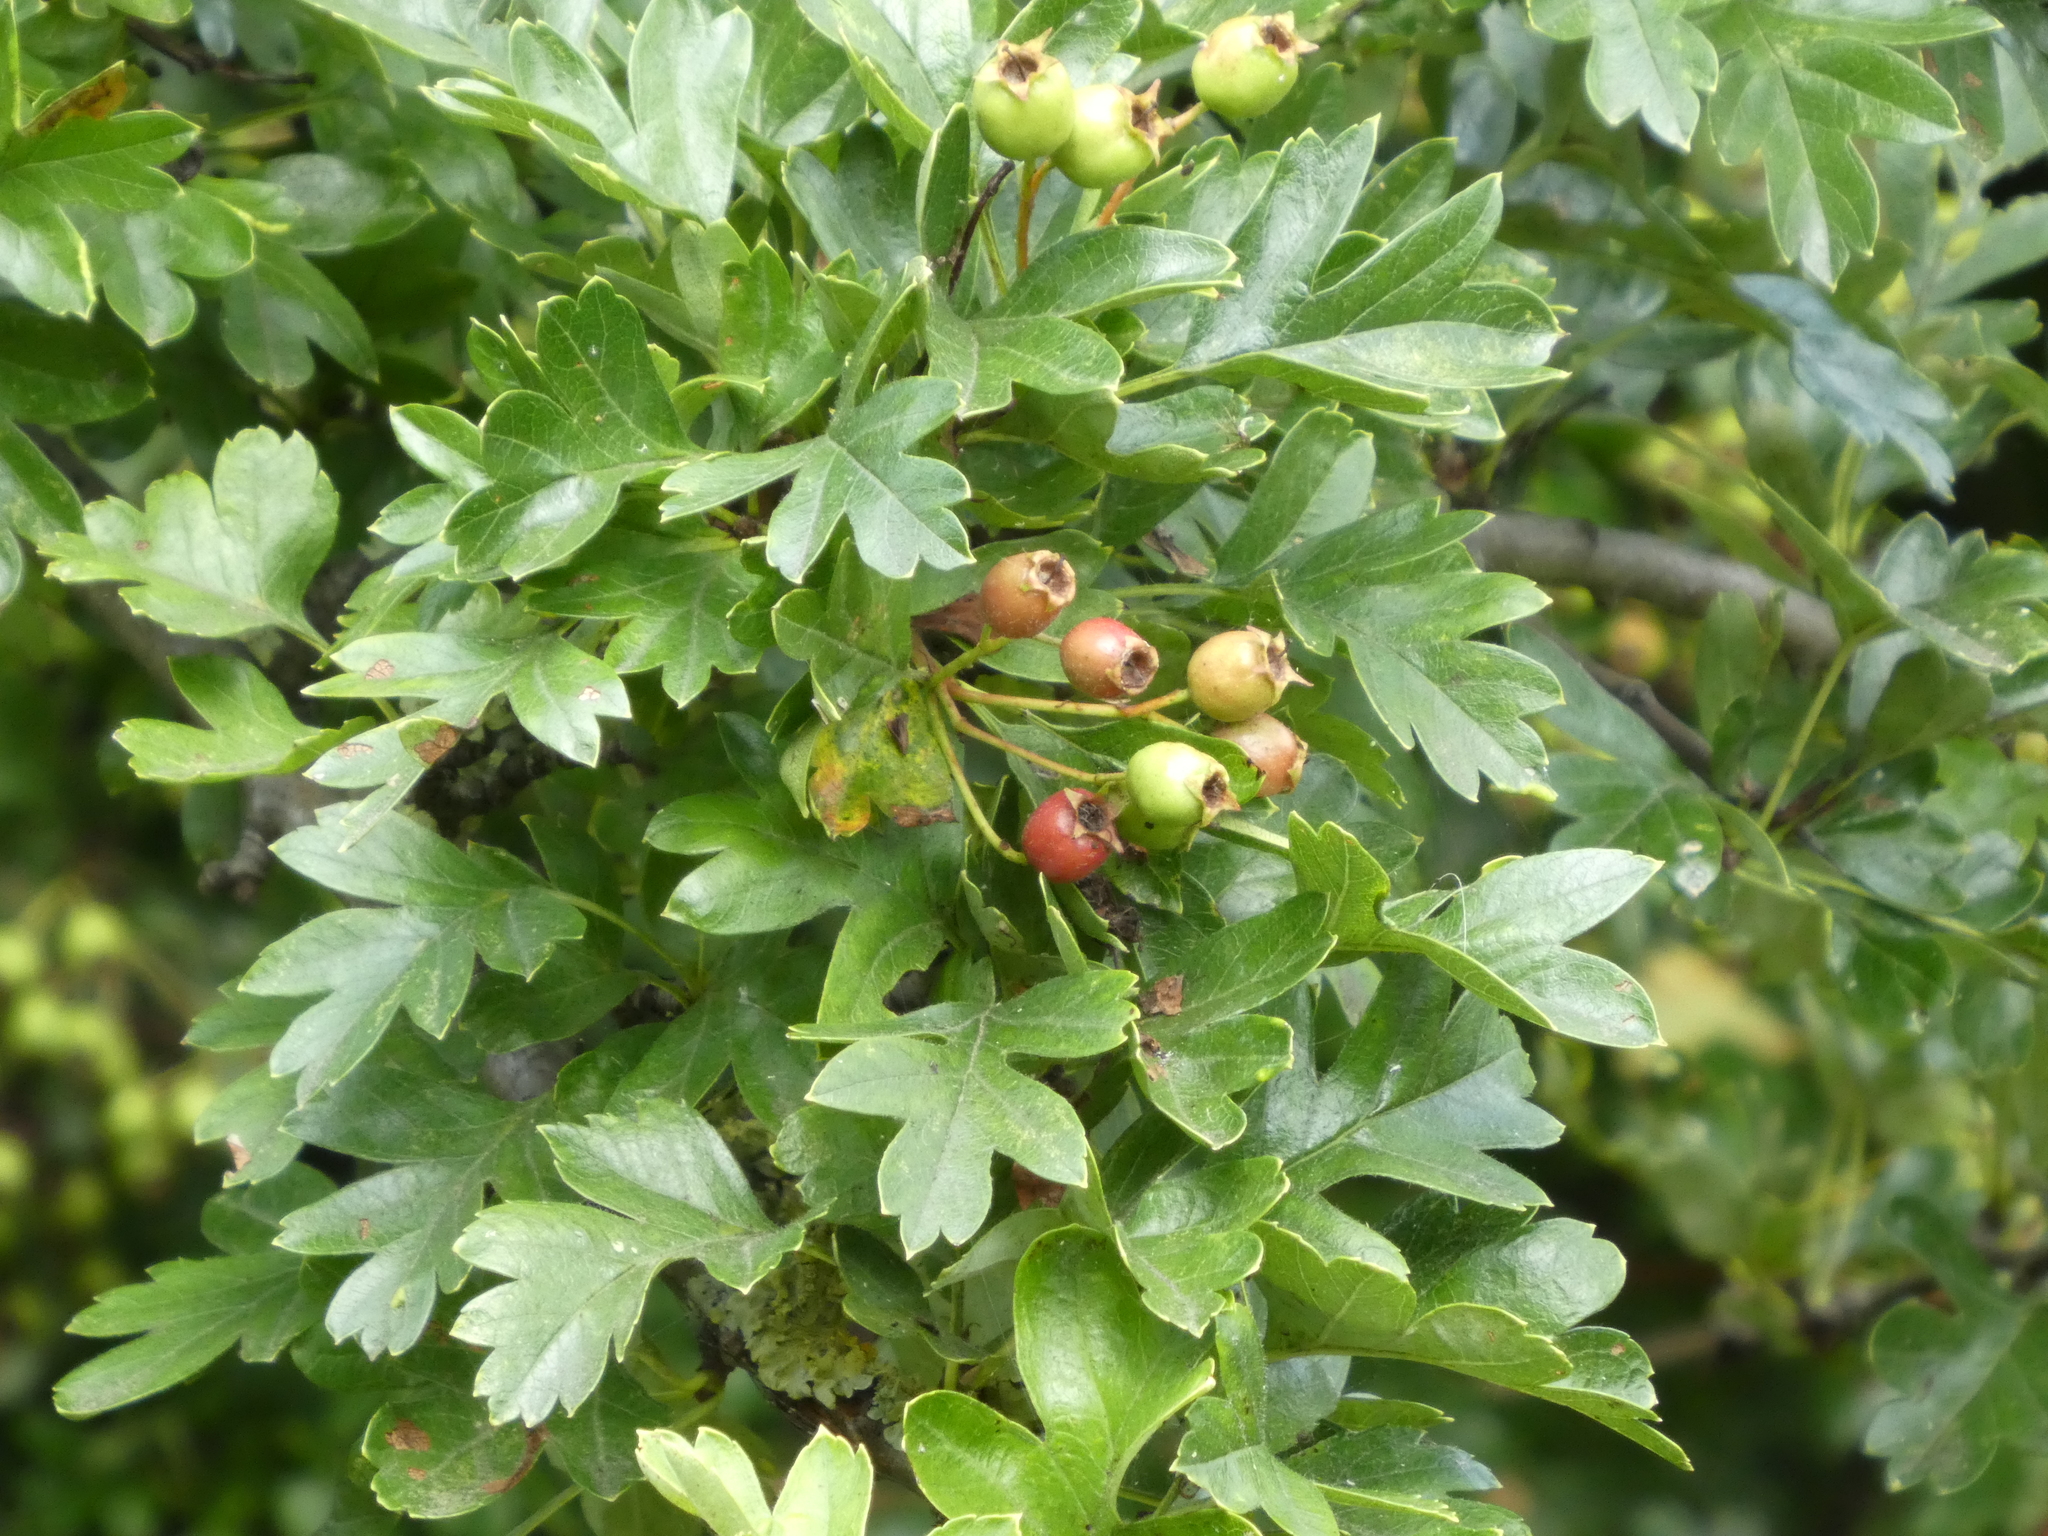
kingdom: Plantae
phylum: Tracheophyta
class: Magnoliopsida
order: Rosales
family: Rosaceae
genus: Crataegus
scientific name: Crataegus monogyna
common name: Hawthorn
